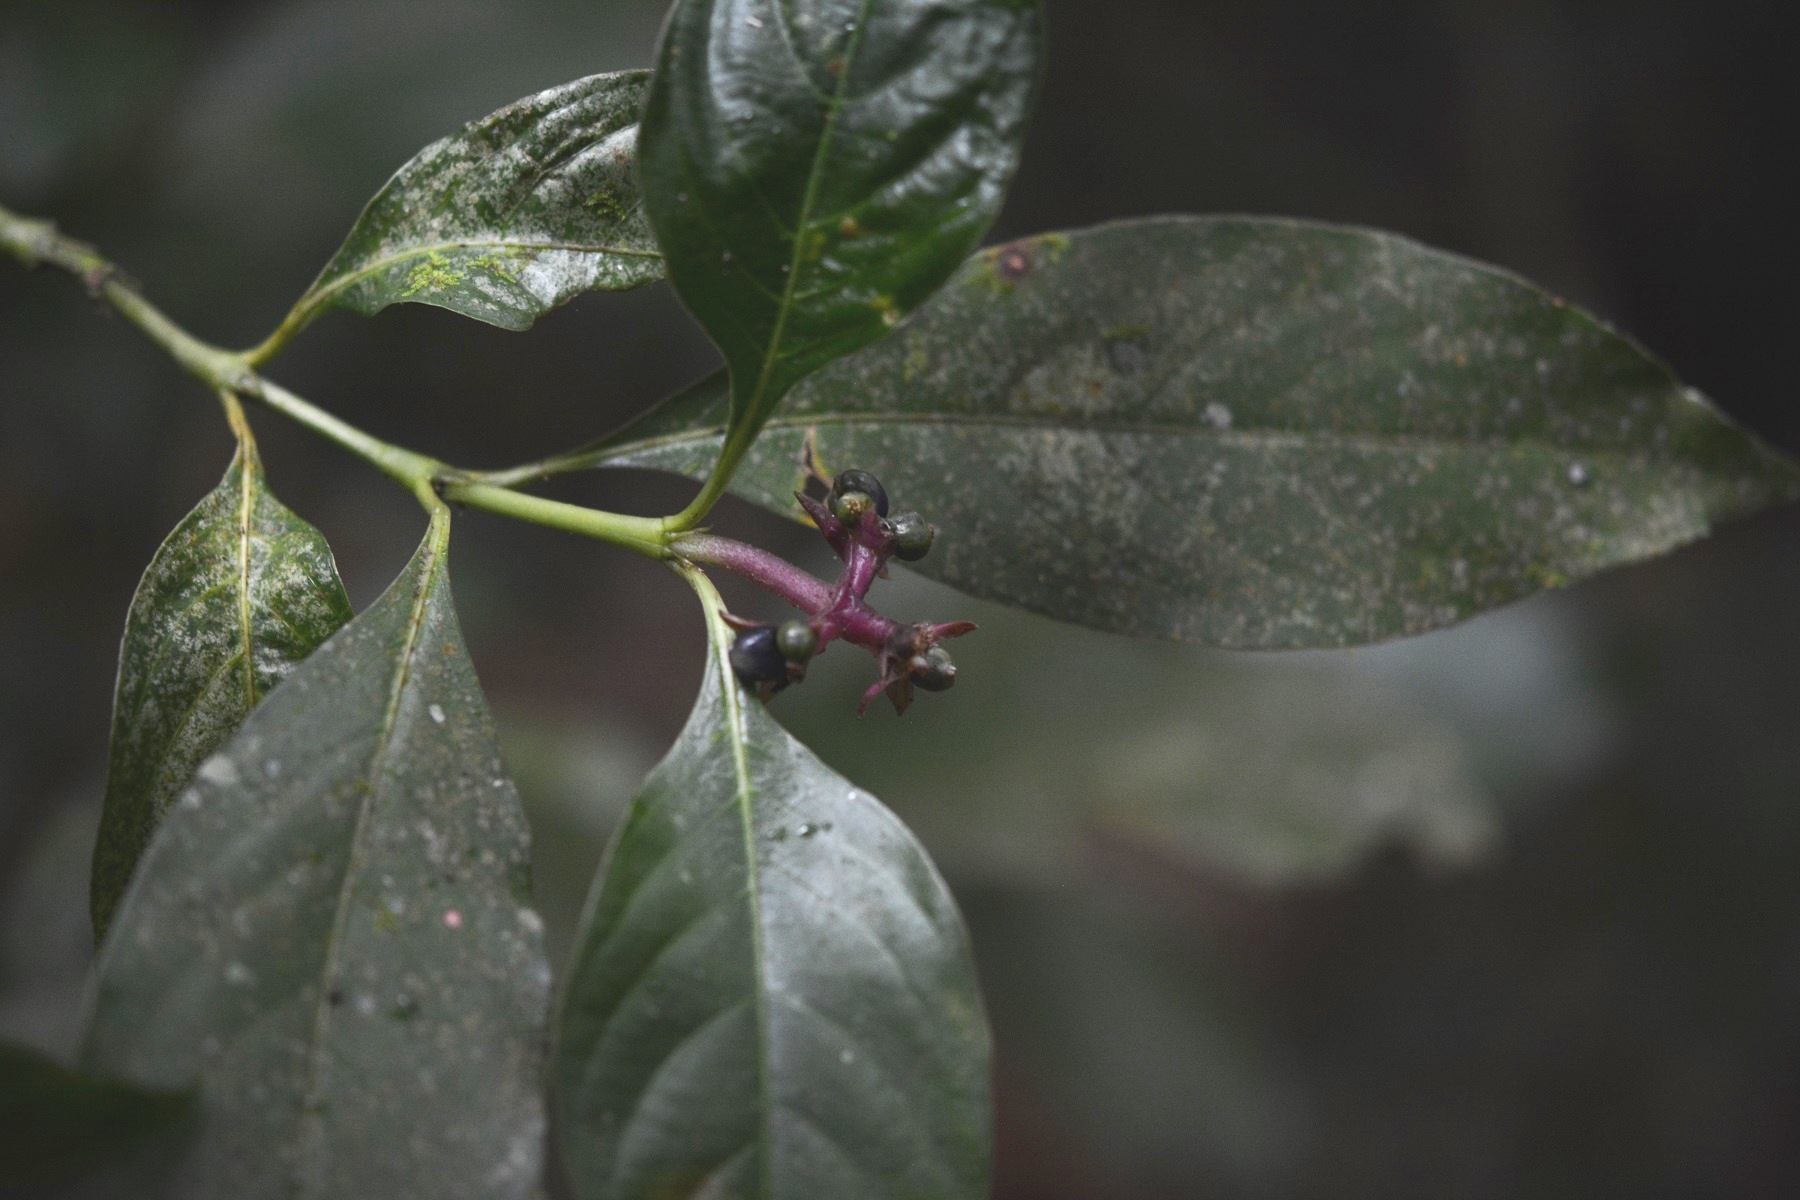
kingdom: Plantae
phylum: Tracheophyta
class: Magnoliopsida
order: Gentianales
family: Rubiaceae
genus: Palicourea
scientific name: Palicourea gracilenta
